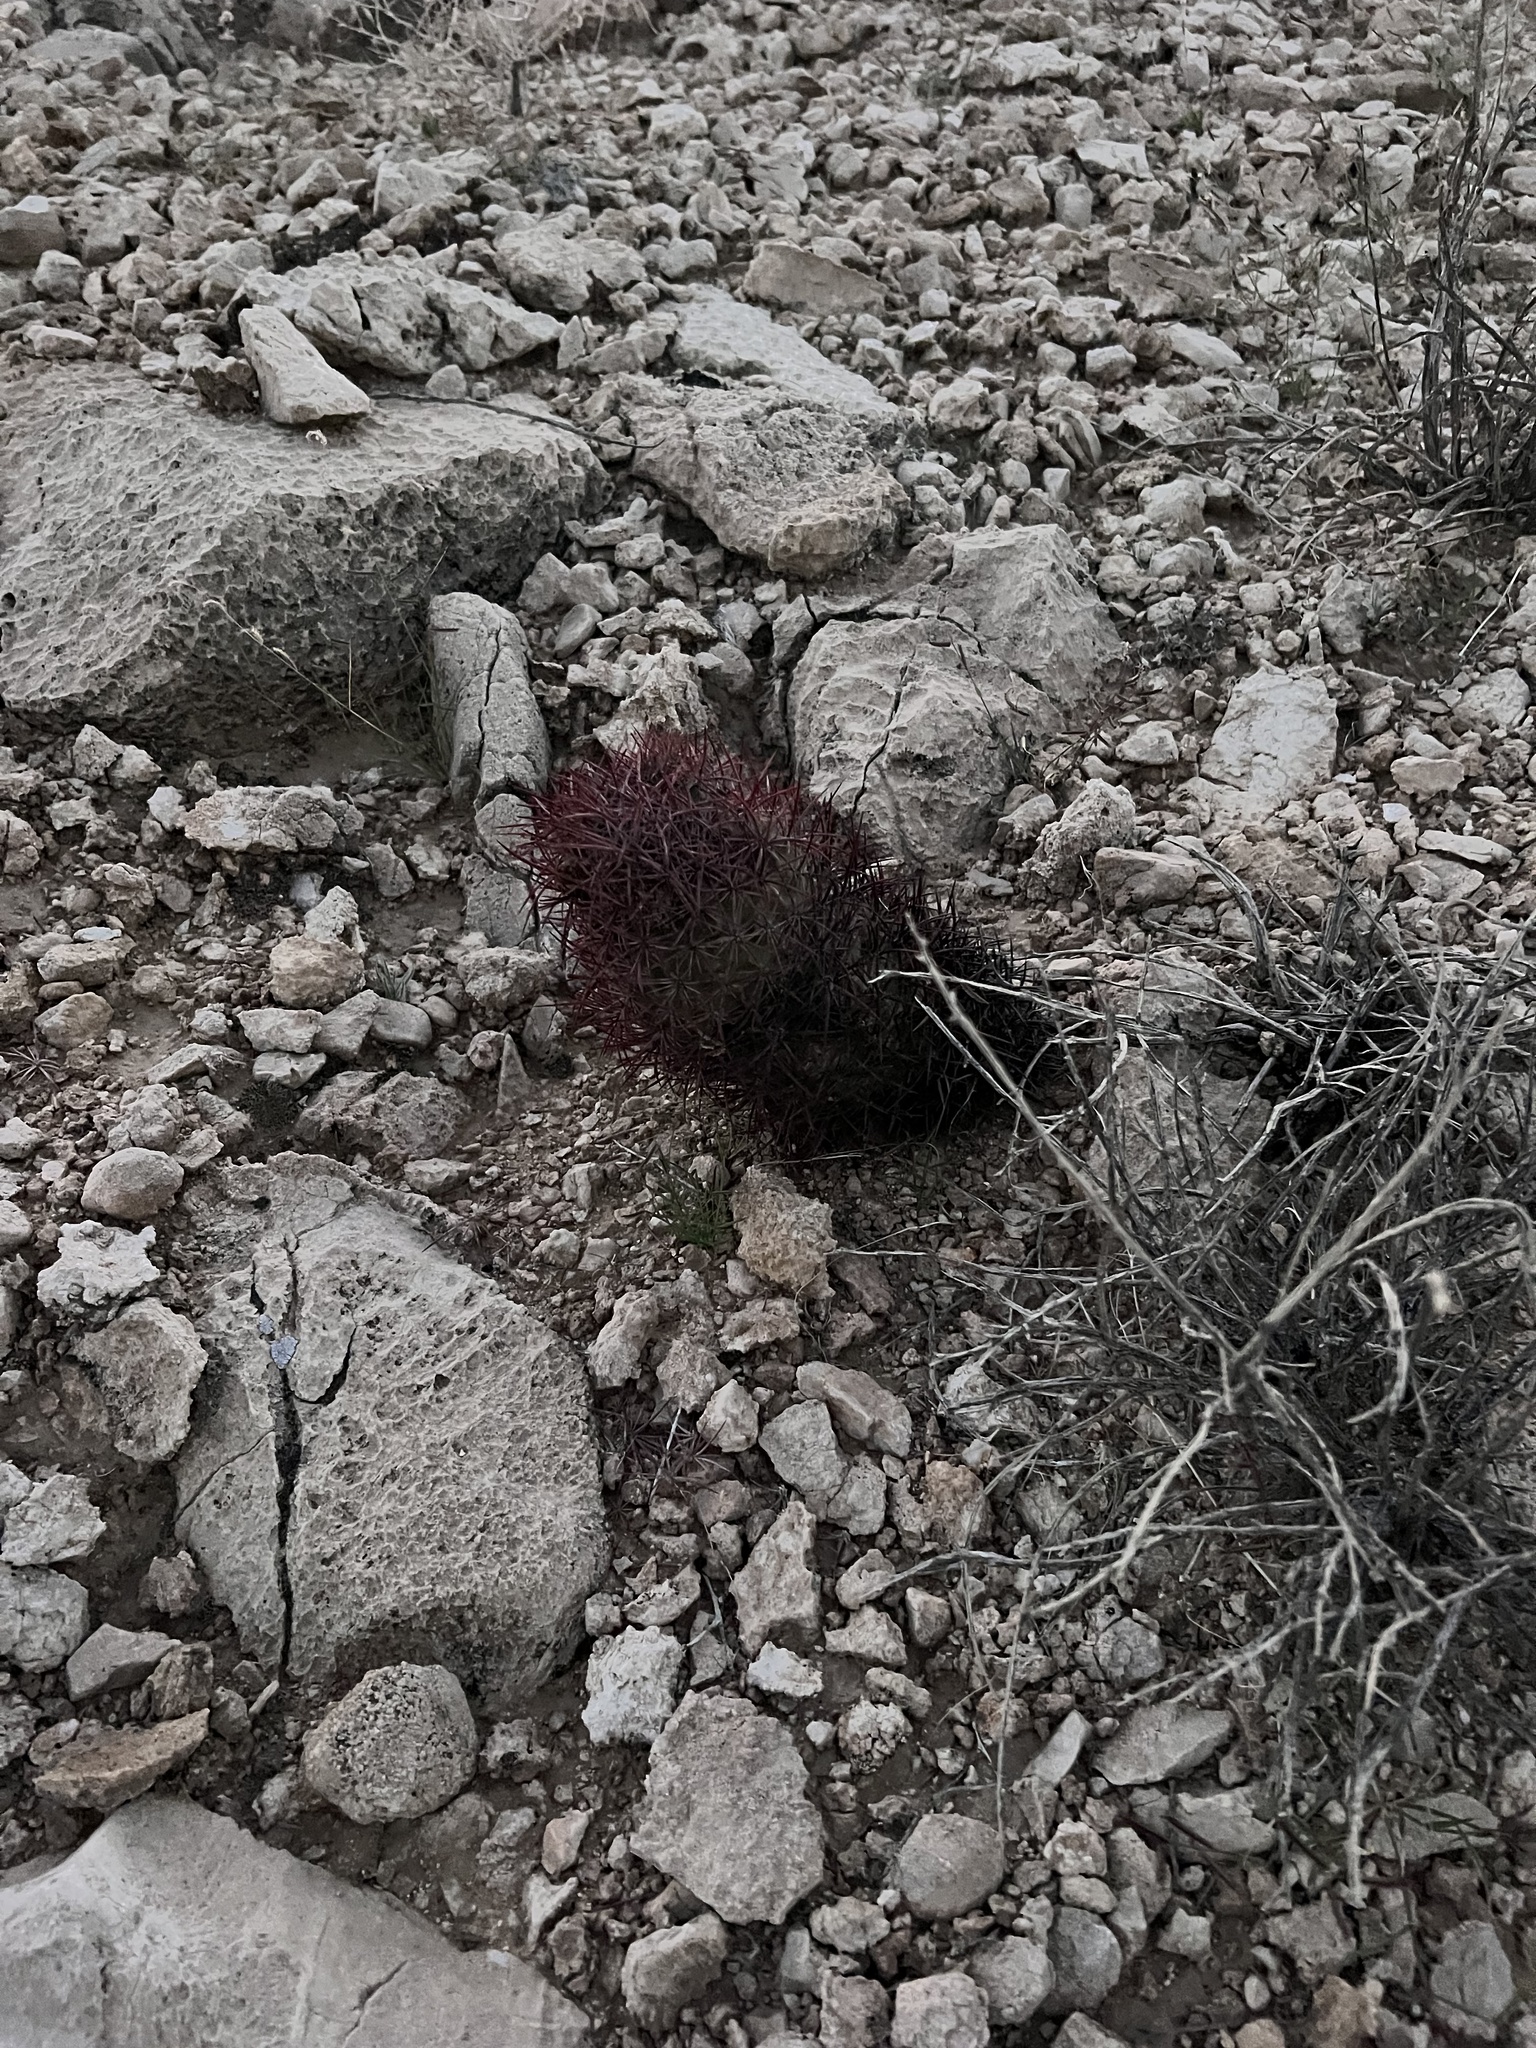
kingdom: Plantae
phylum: Tracheophyta
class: Magnoliopsida
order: Caryophyllales
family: Cactaceae
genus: Sclerocactus
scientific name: Sclerocactus johnsonii
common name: Eight-spine fishhook cactus
